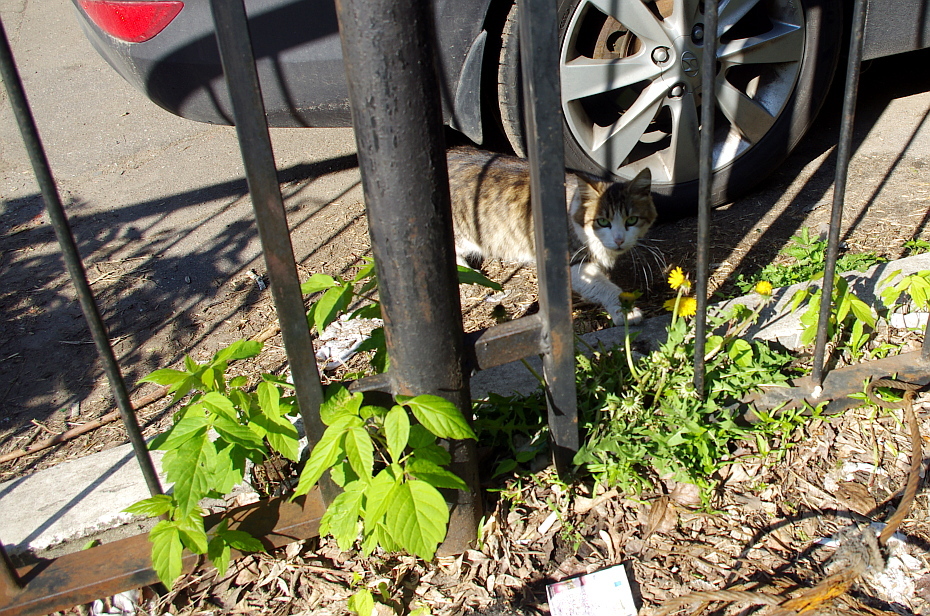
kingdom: Plantae
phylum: Tracheophyta
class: Magnoliopsida
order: Sapindales
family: Sapindaceae
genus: Acer
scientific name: Acer negundo
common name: Ashleaf maple
